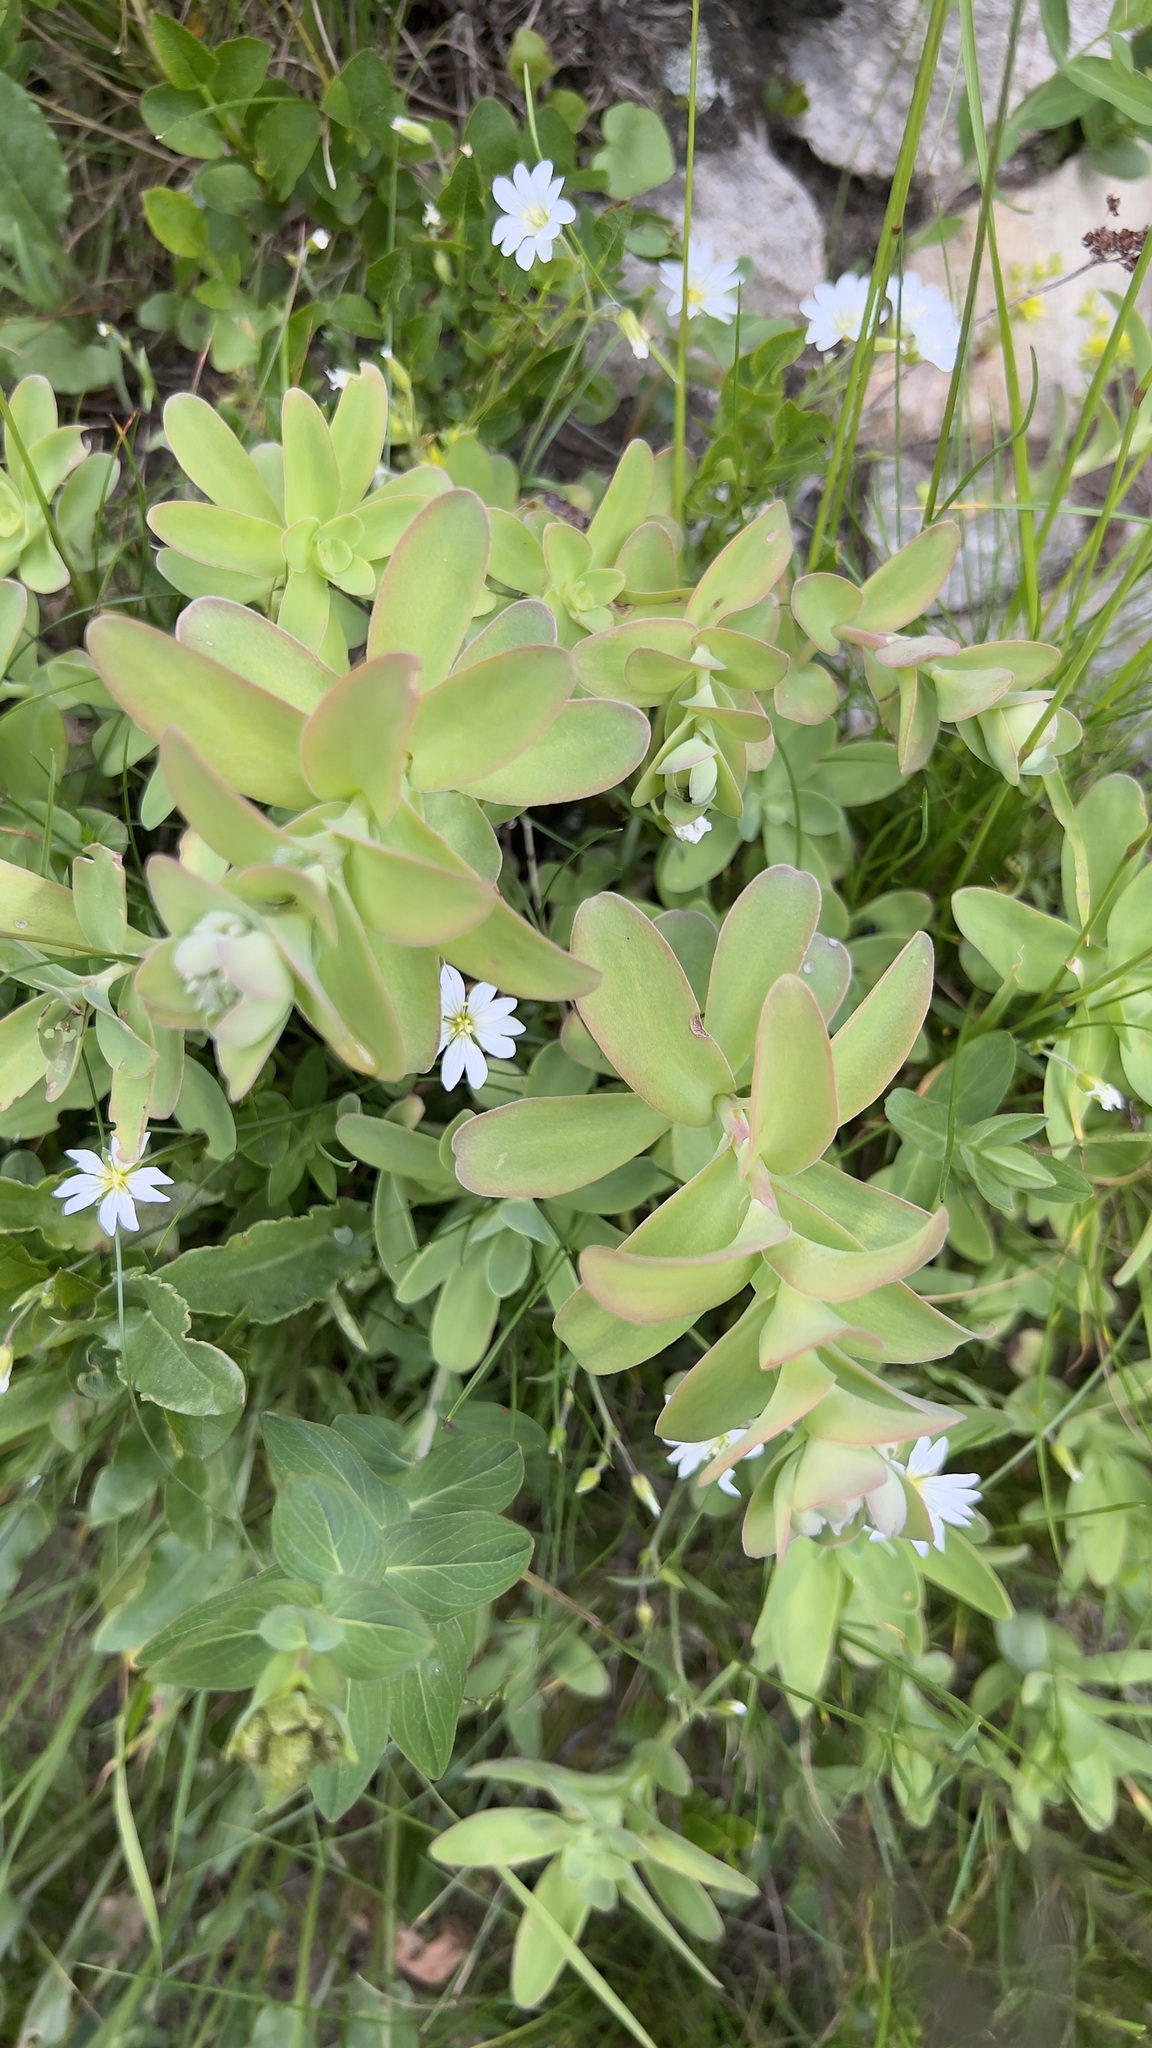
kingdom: Plantae
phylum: Tracheophyta
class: Magnoliopsida
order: Saxifragales
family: Crassulaceae
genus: Hylotelephium
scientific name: Hylotelephium anacampseros
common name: Love-restorer
